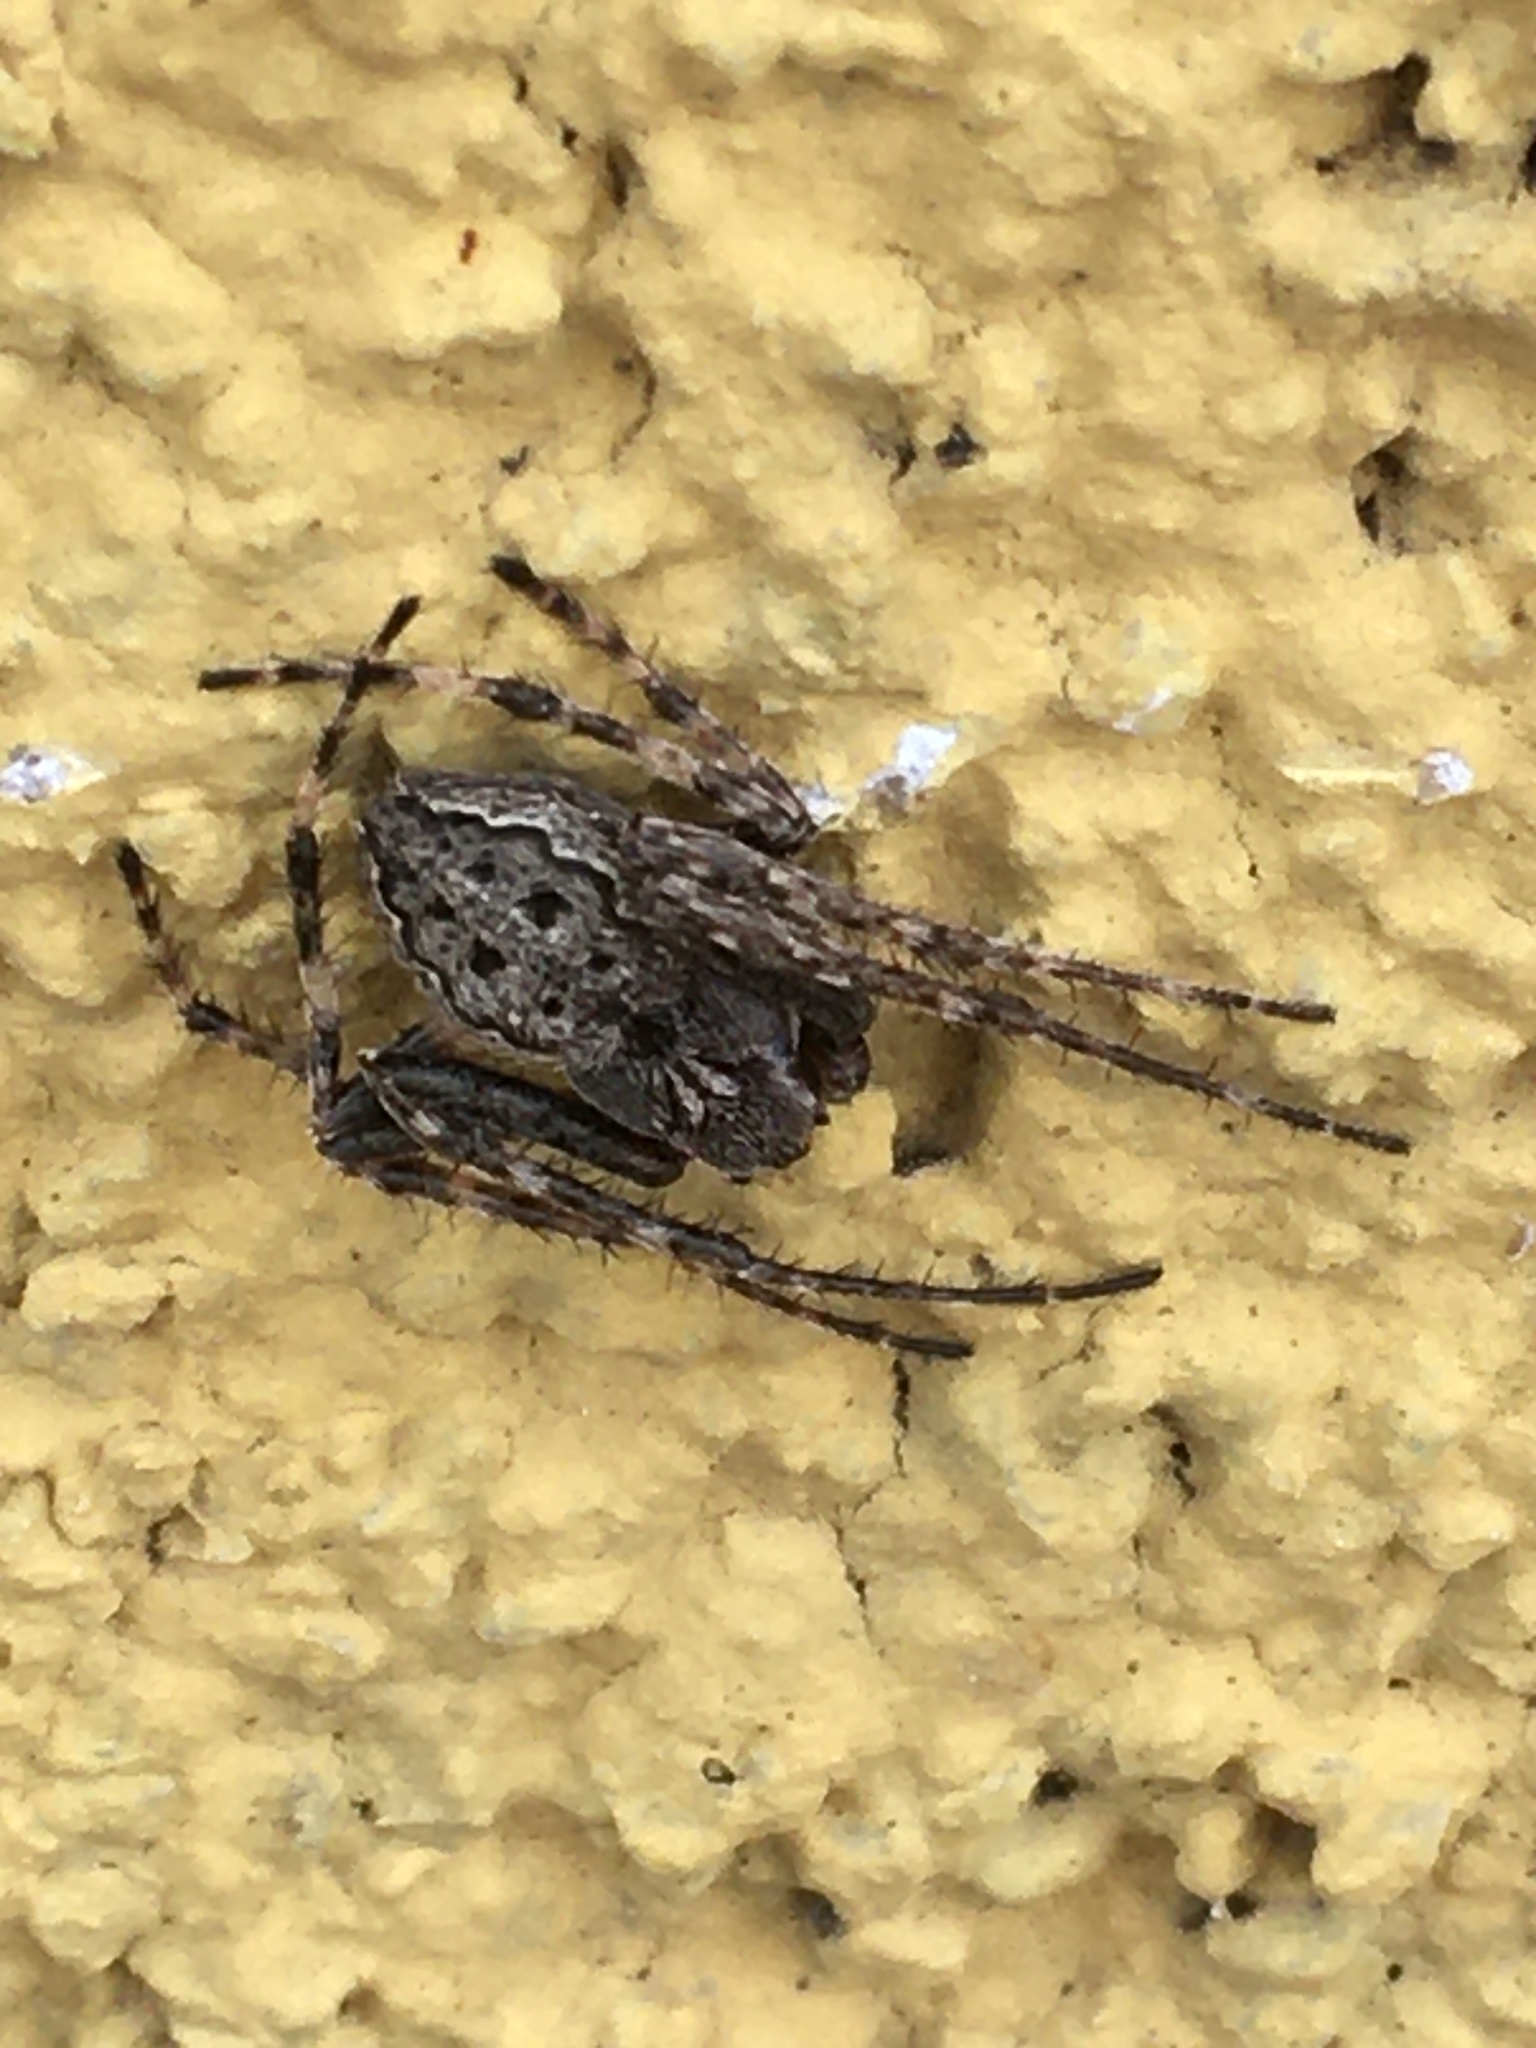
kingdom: Animalia
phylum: Arthropoda
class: Arachnida
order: Araneae
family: Araneidae
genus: Nuctenea
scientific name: Nuctenea umbratica
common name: Toad spider
